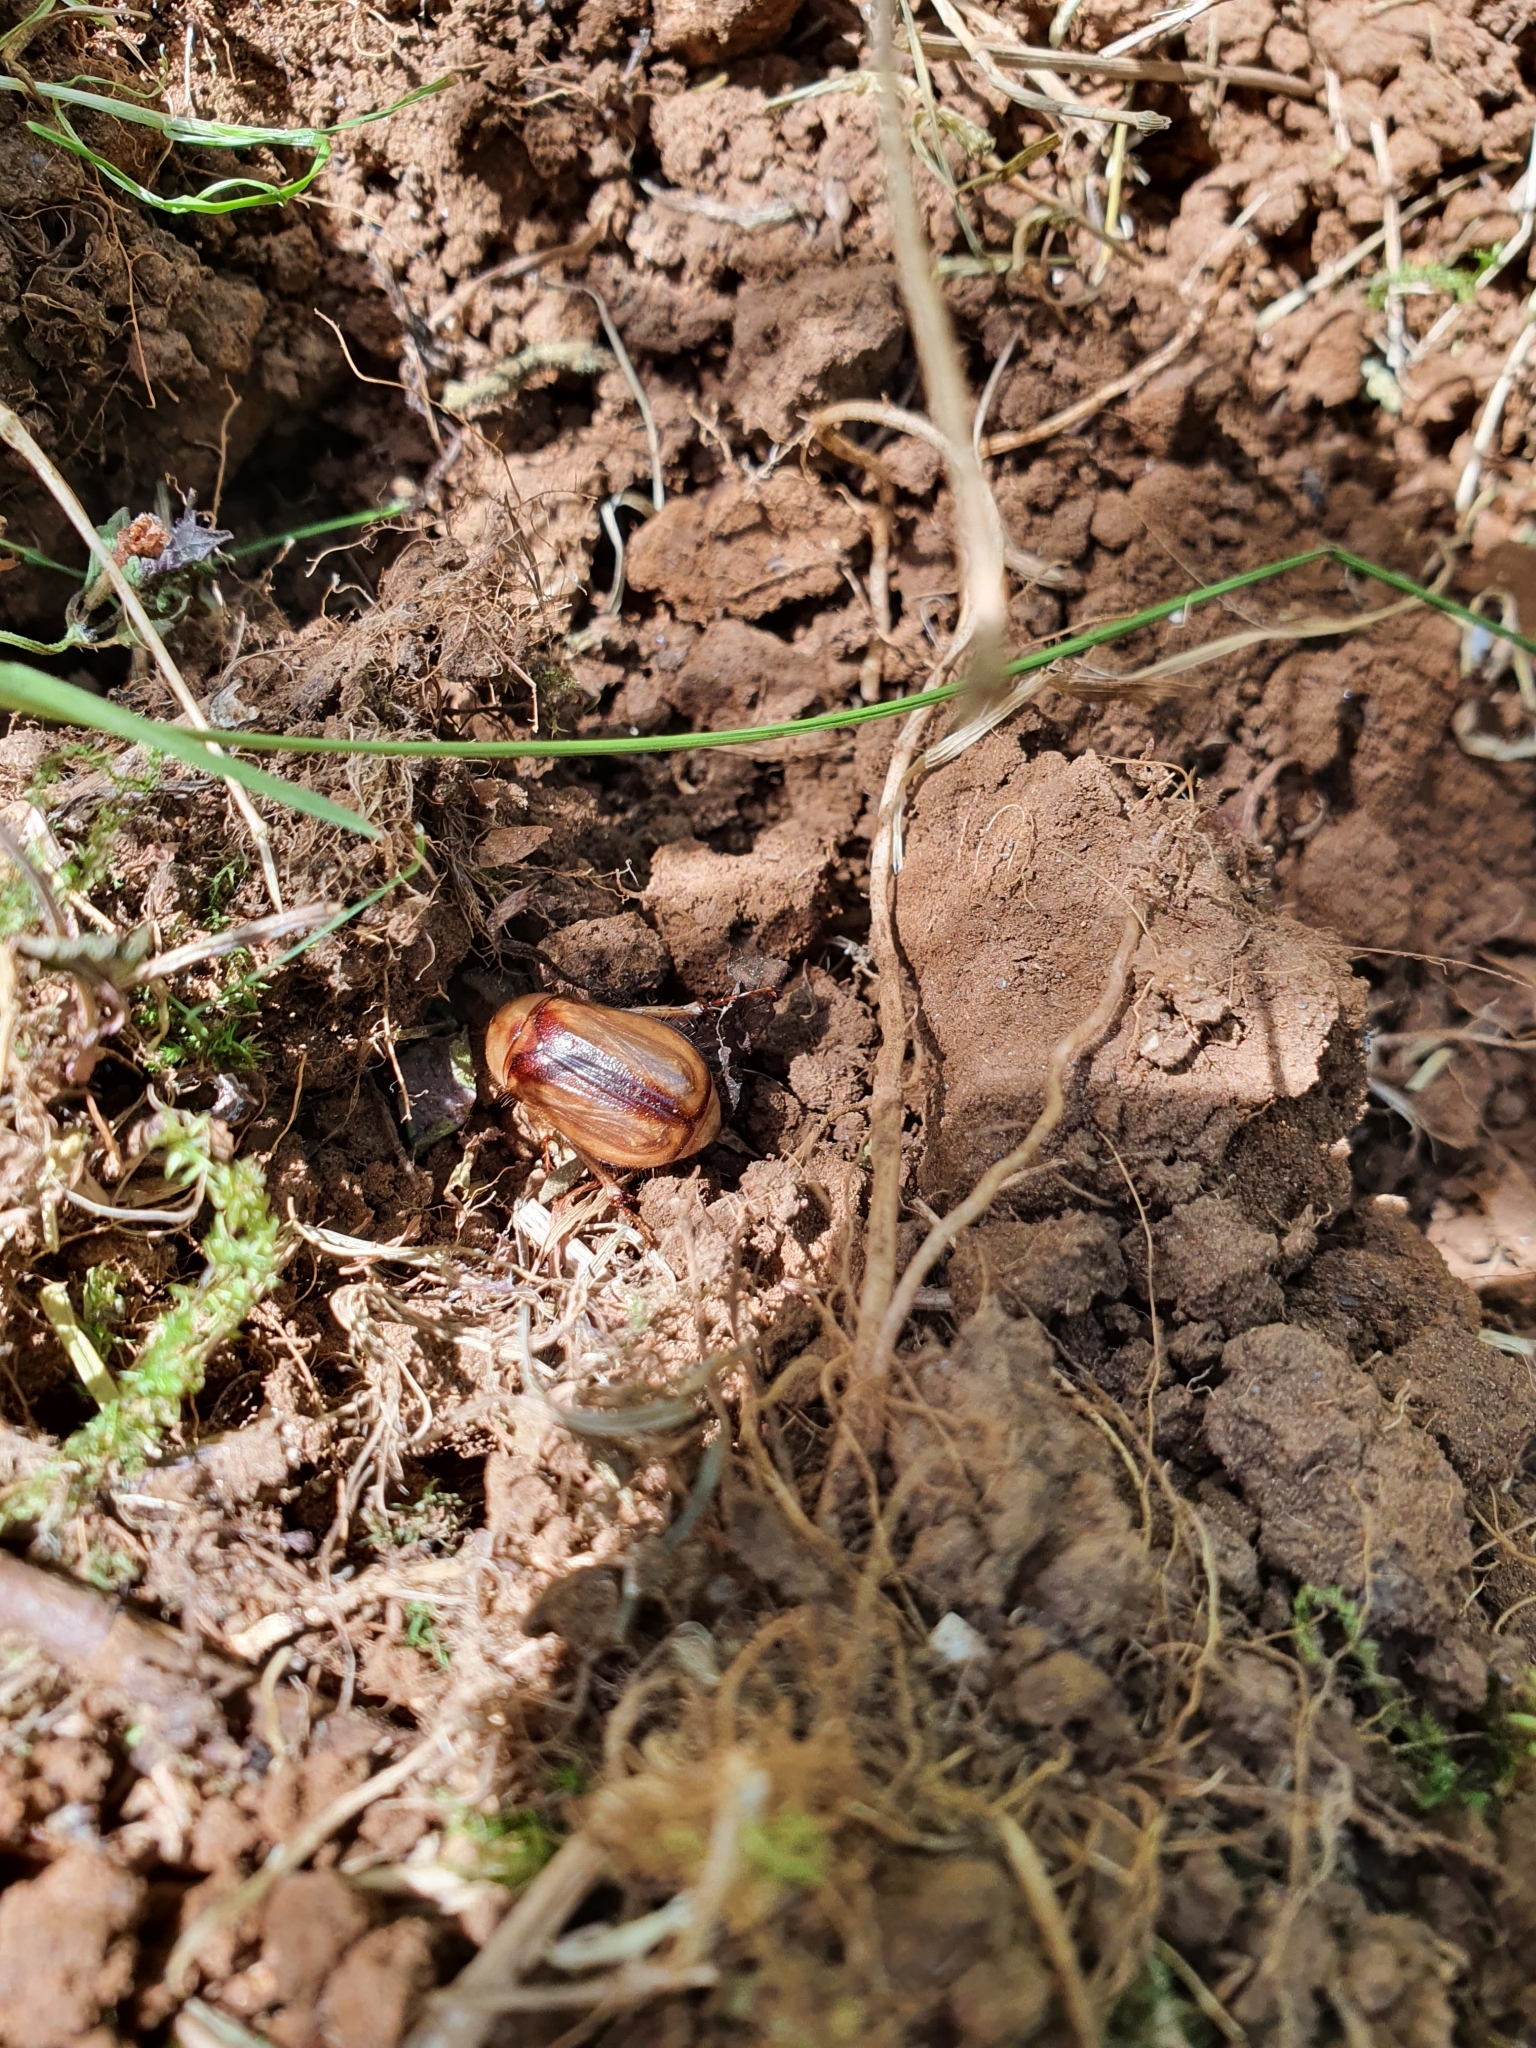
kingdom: Animalia
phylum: Arthropoda
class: Insecta
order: Coleoptera
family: Scarabaeidae
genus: Rhizotrogus
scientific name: Rhizotrogus aestivus
